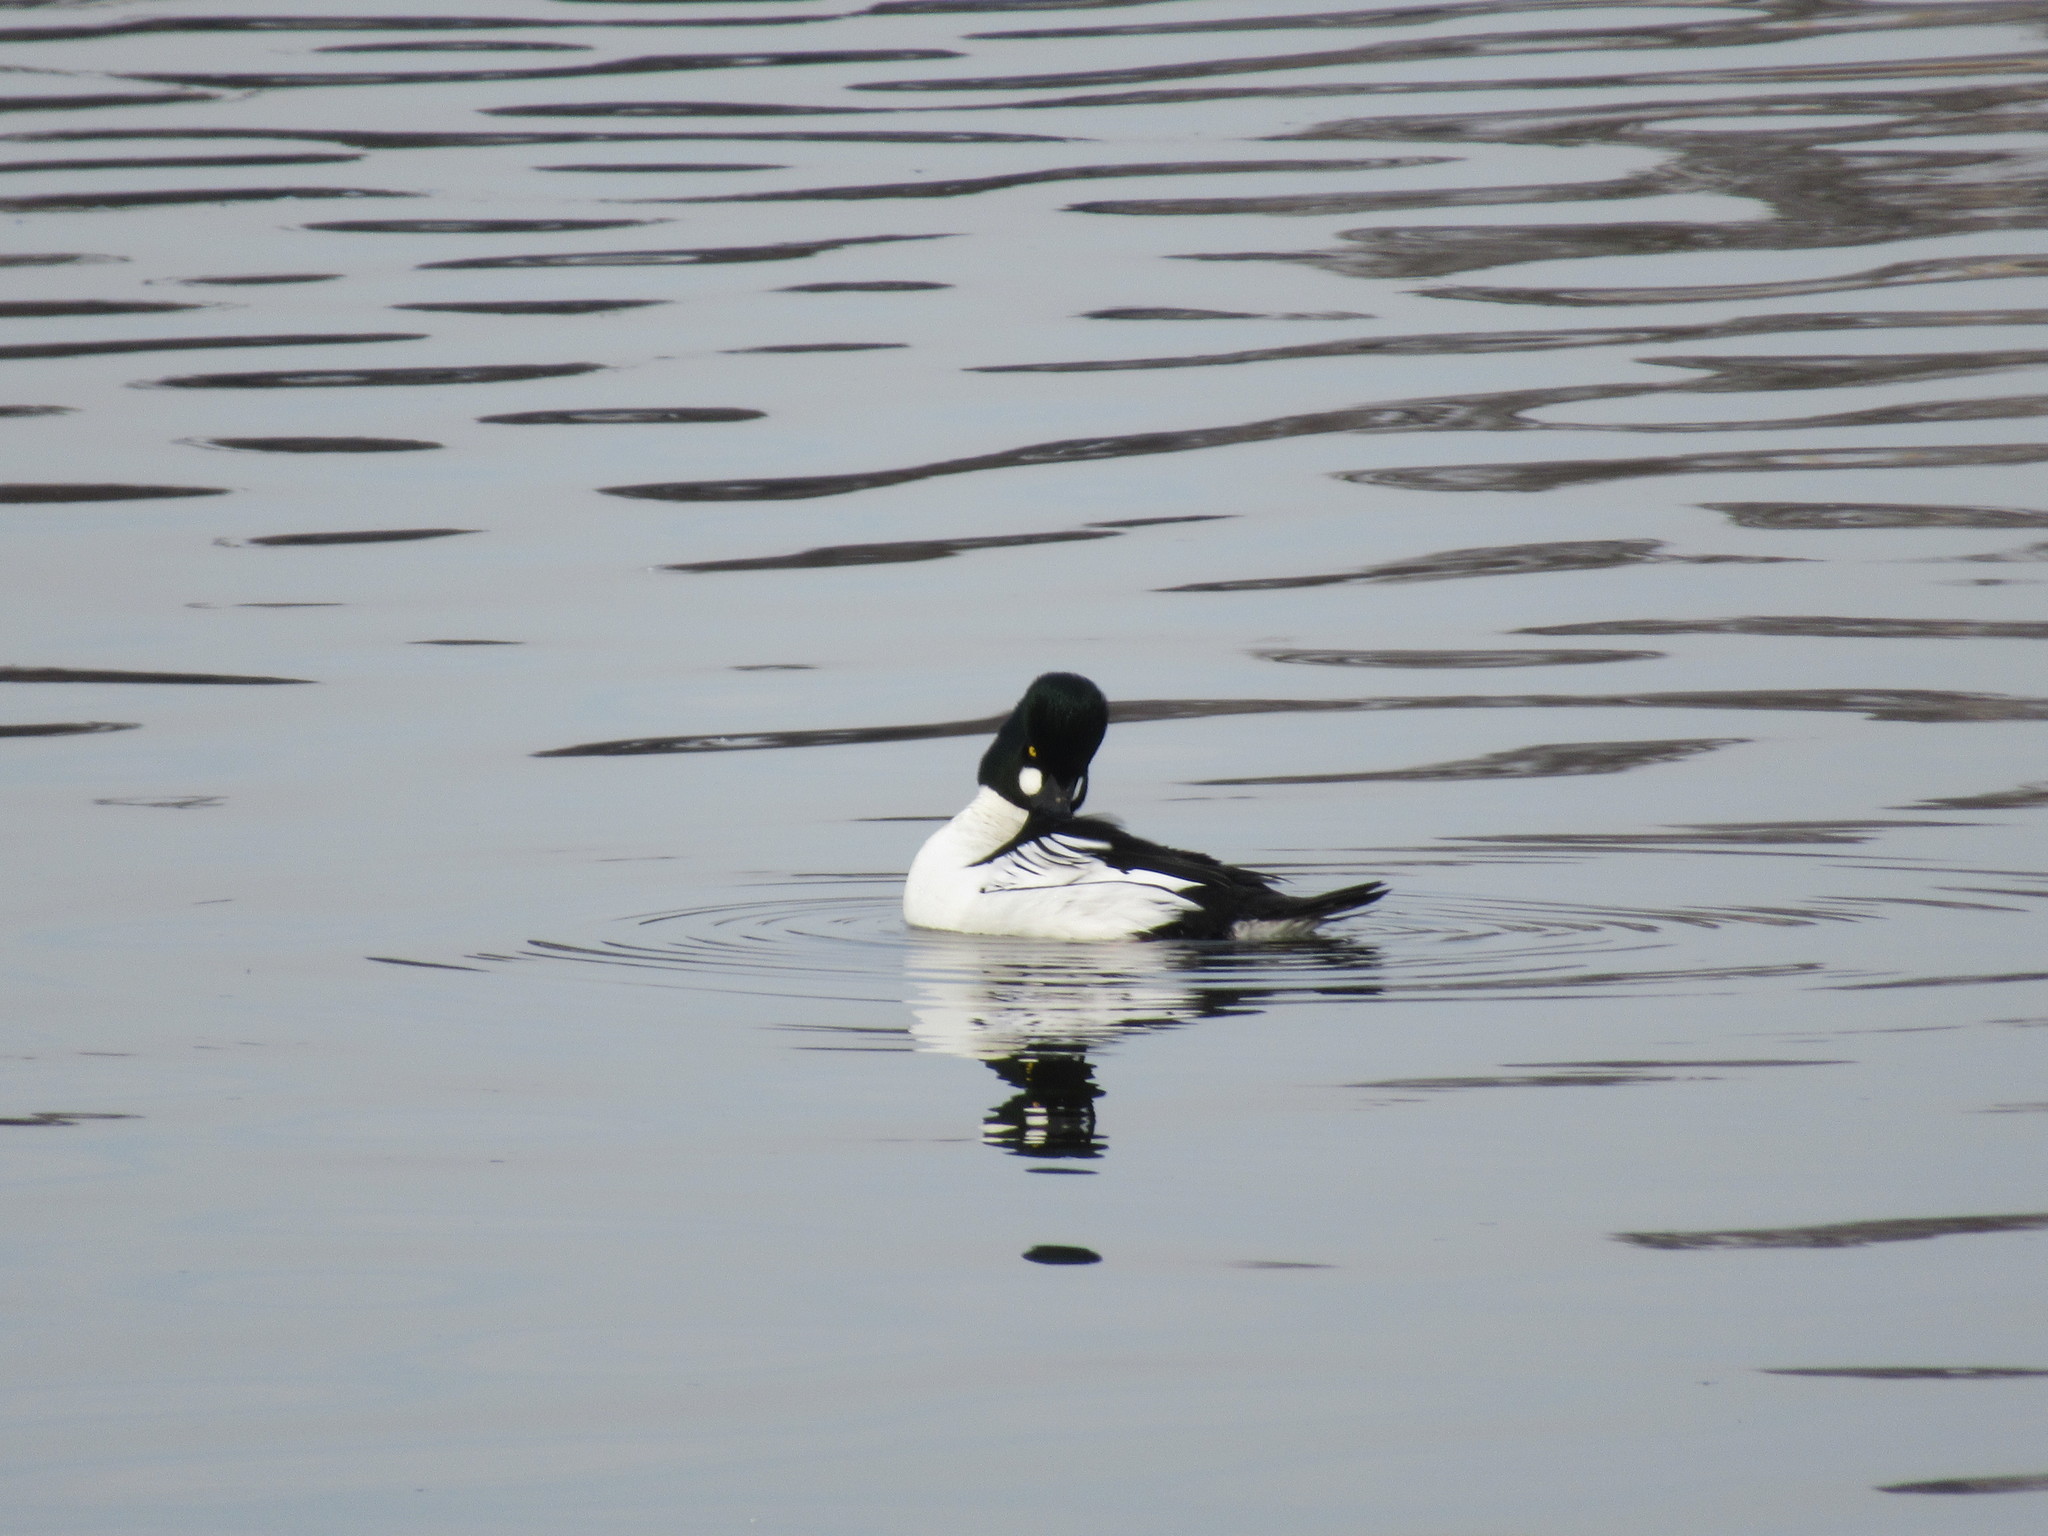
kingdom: Animalia
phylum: Chordata
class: Aves
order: Anseriformes
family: Anatidae
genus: Bucephala
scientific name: Bucephala clangula
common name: Common goldeneye
